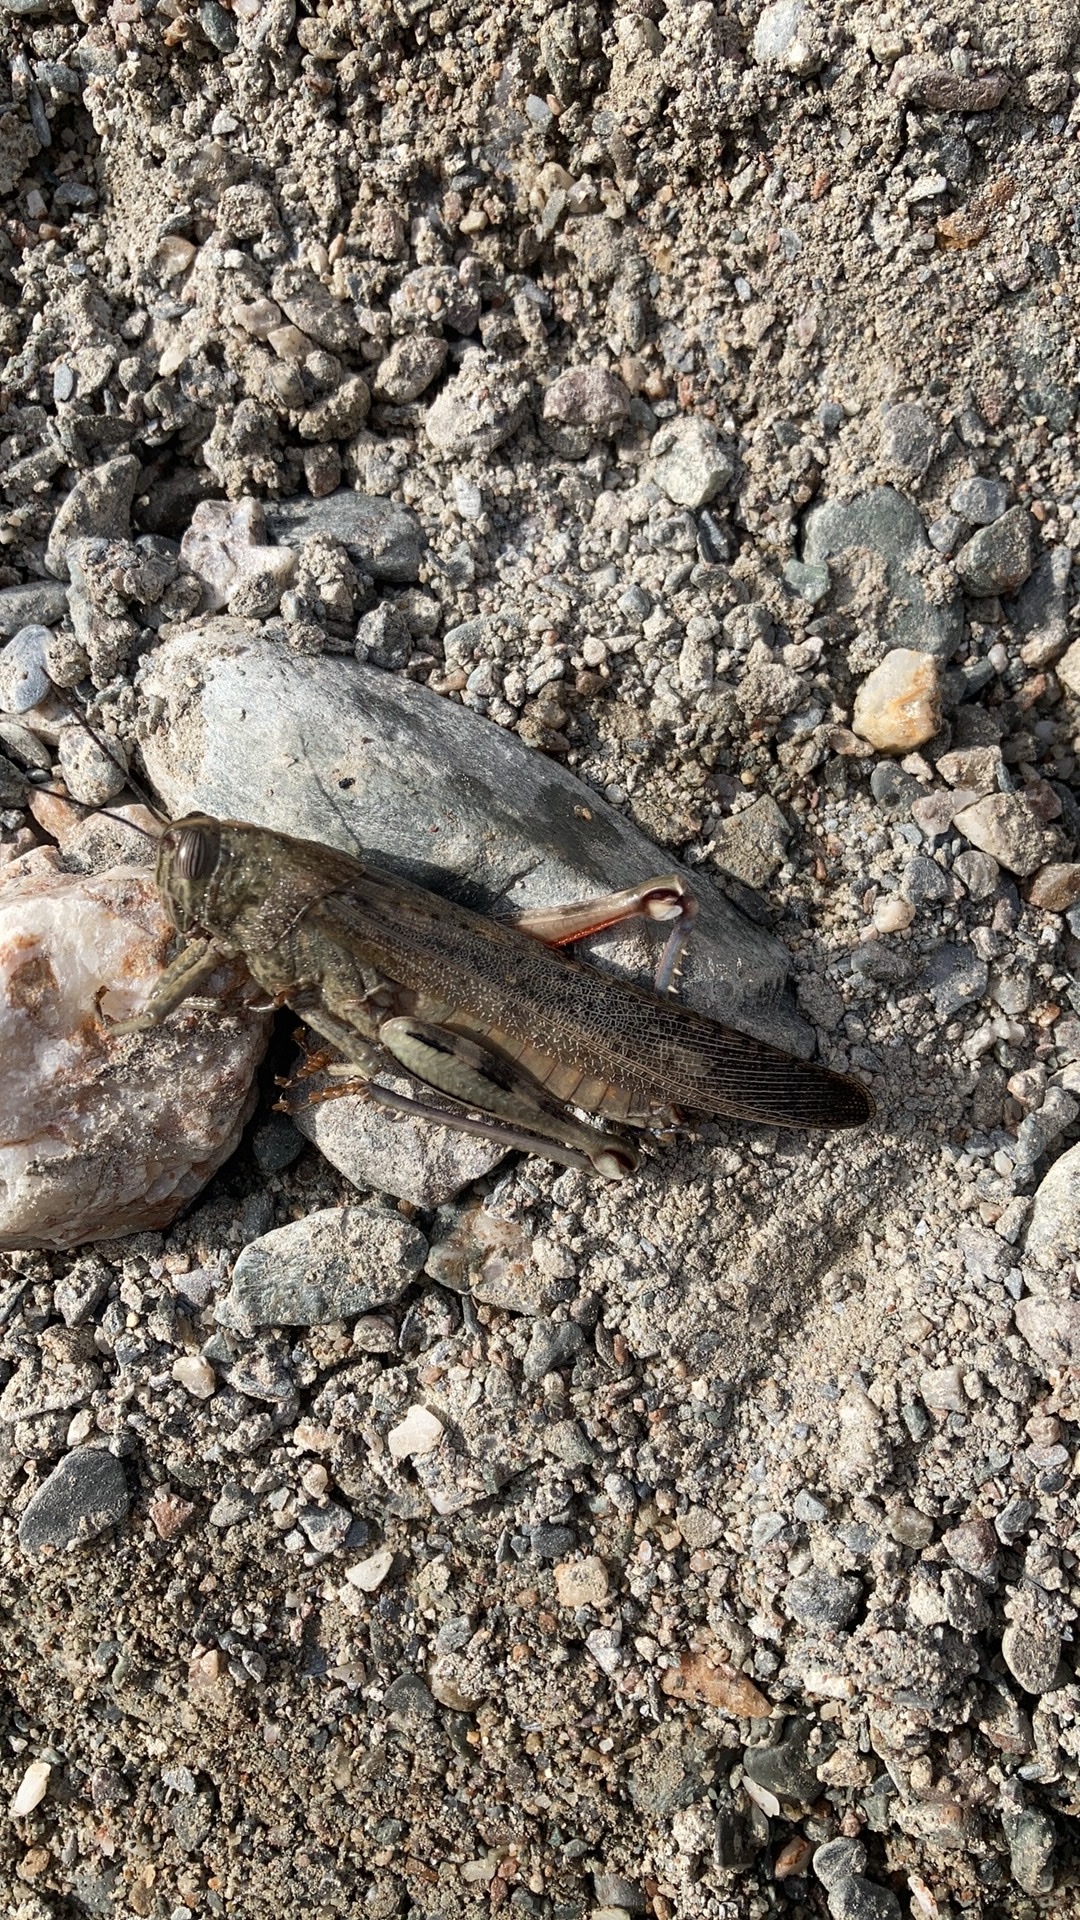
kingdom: Animalia
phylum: Arthropoda
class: Insecta
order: Orthoptera
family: Acrididae
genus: Anacridium
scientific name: Anacridium aegyptium
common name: Egyptian grasshopper
